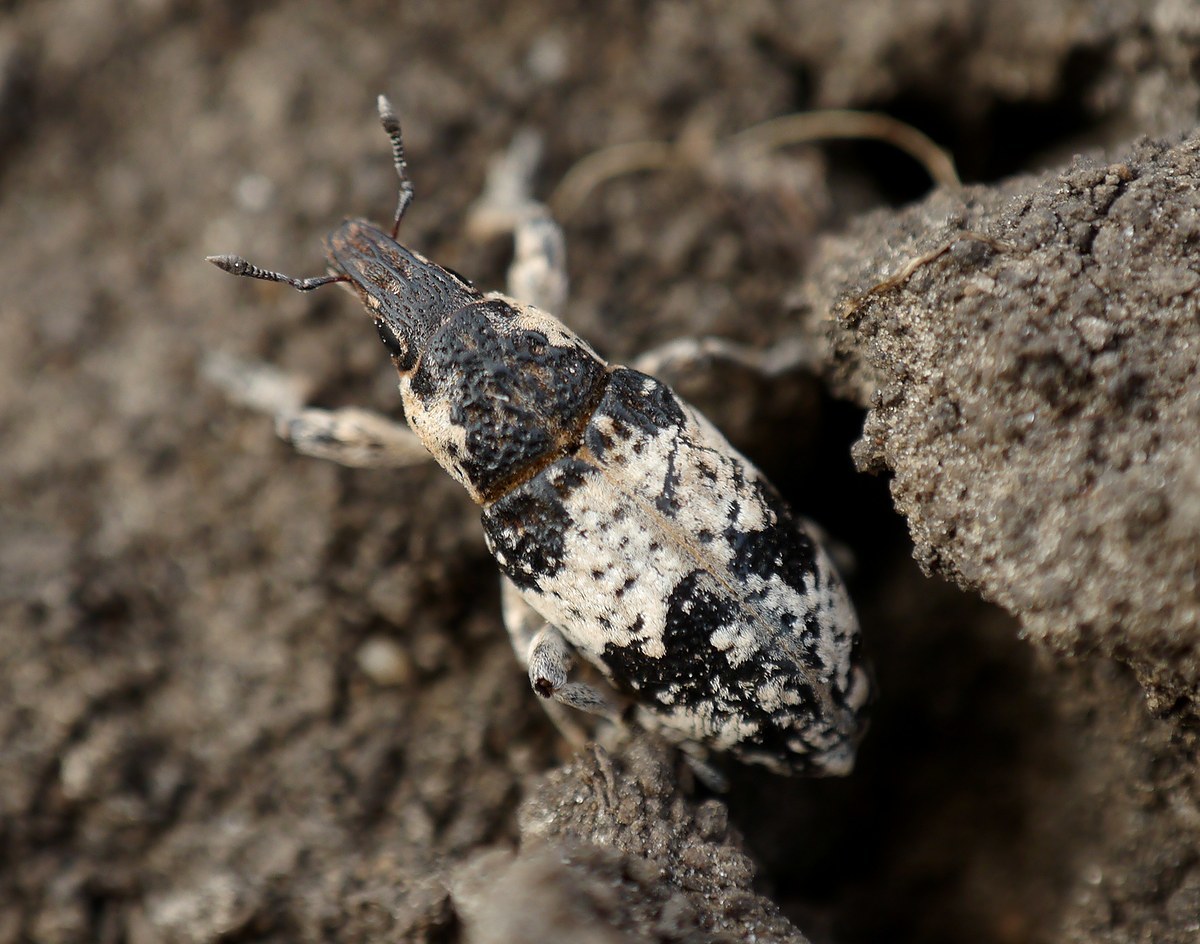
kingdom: Animalia
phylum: Arthropoda
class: Insecta
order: Coleoptera
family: Curculionidae
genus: Bothynoderes
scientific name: Bothynoderes affinis
